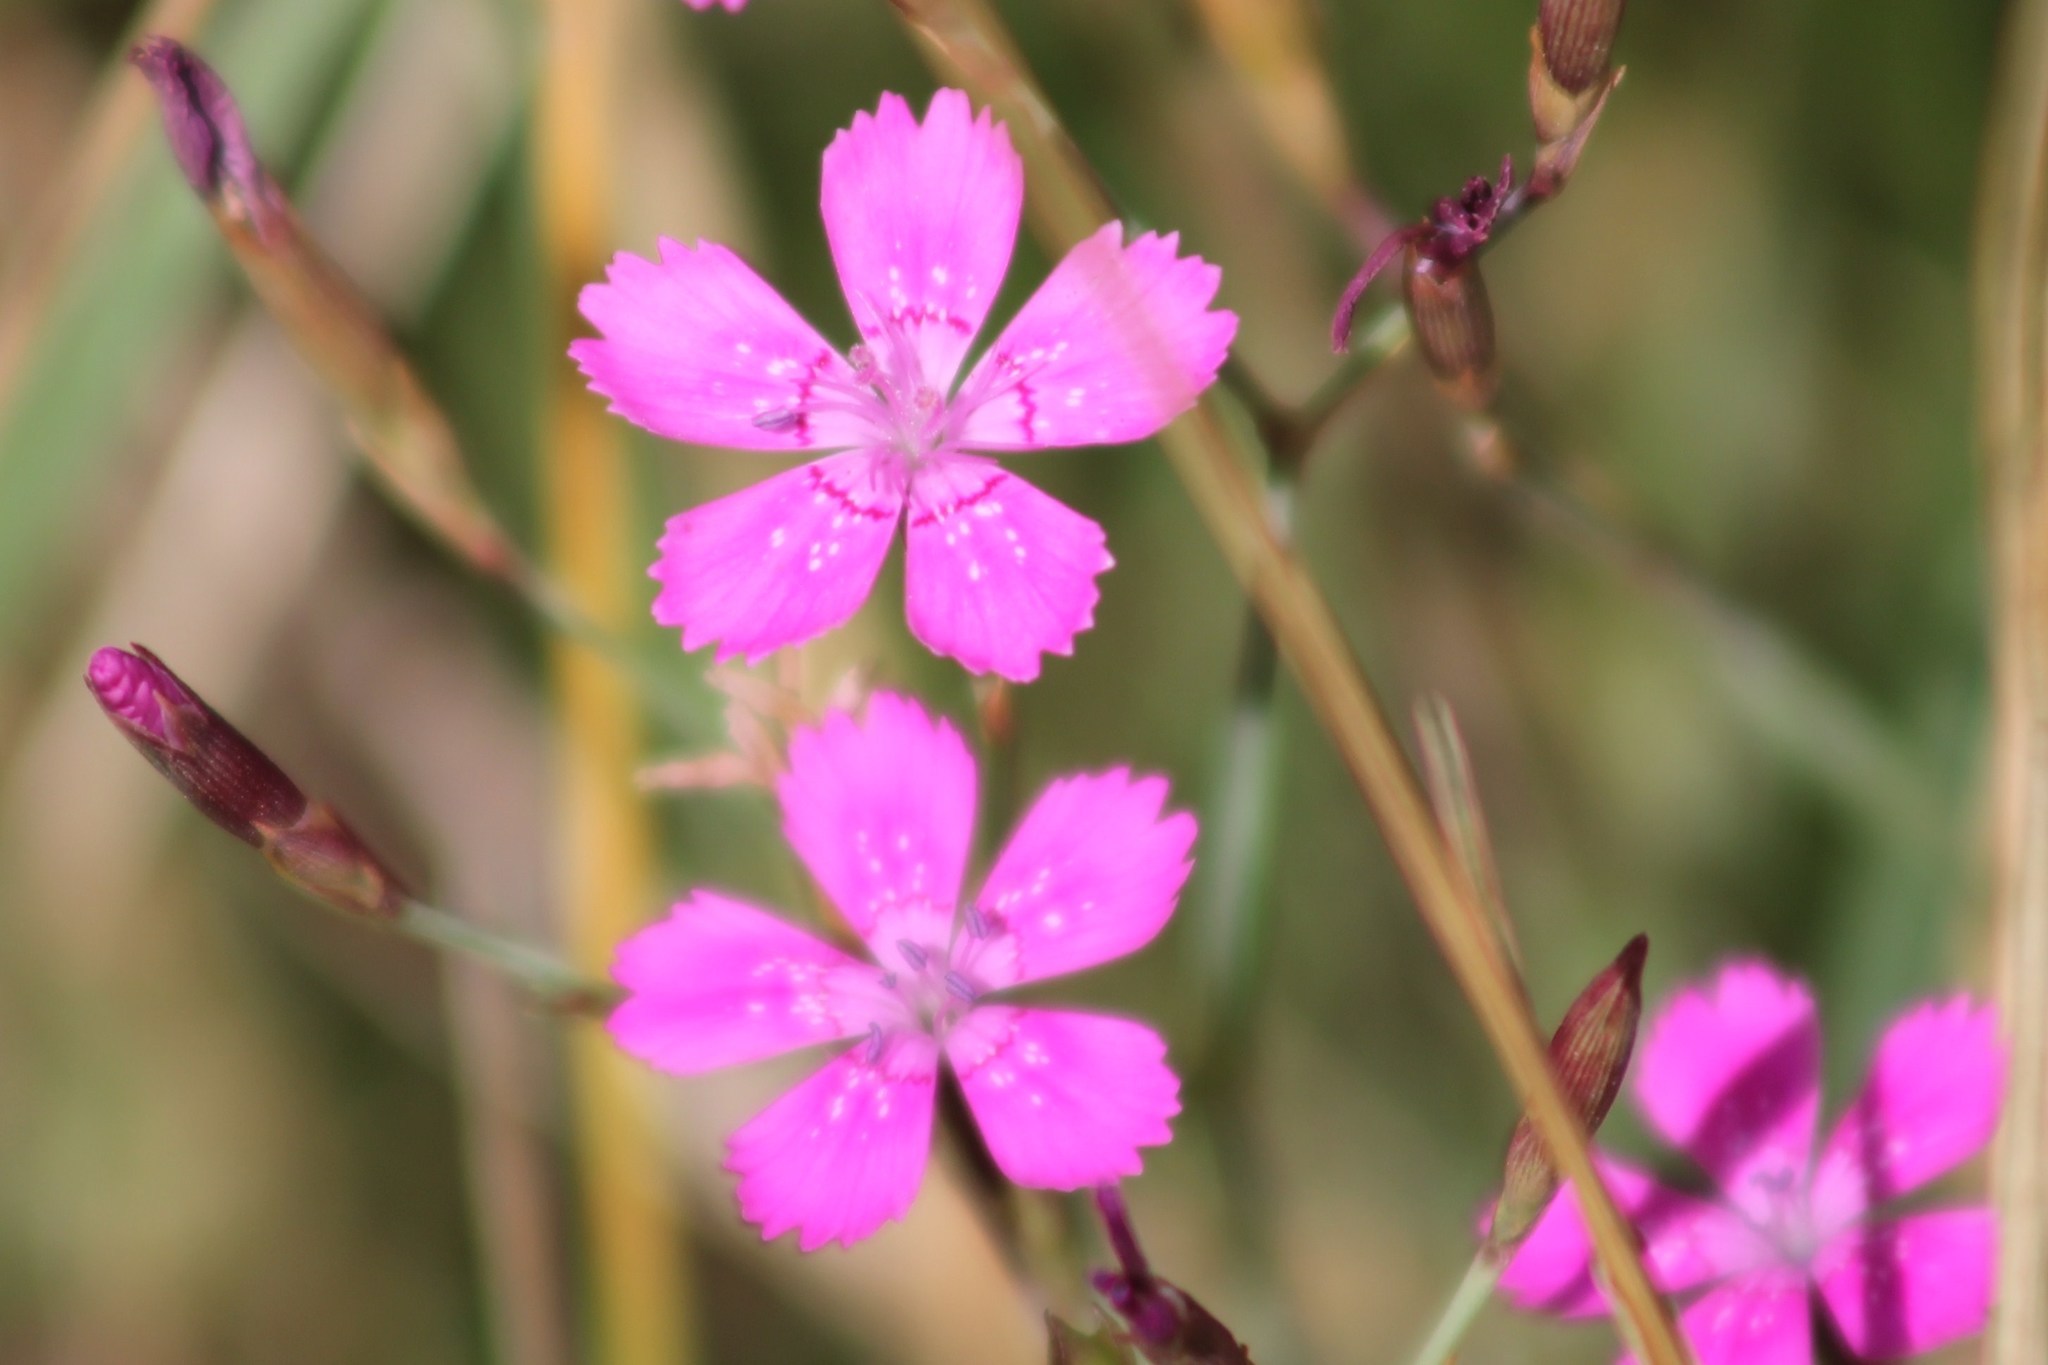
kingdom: Plantae
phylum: Tracheophyta
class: Magnoliopsida
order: Caryophyllales
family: Caryophyllaceae
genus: Dianthus
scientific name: Dianthus deltoides
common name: Maiden pink
